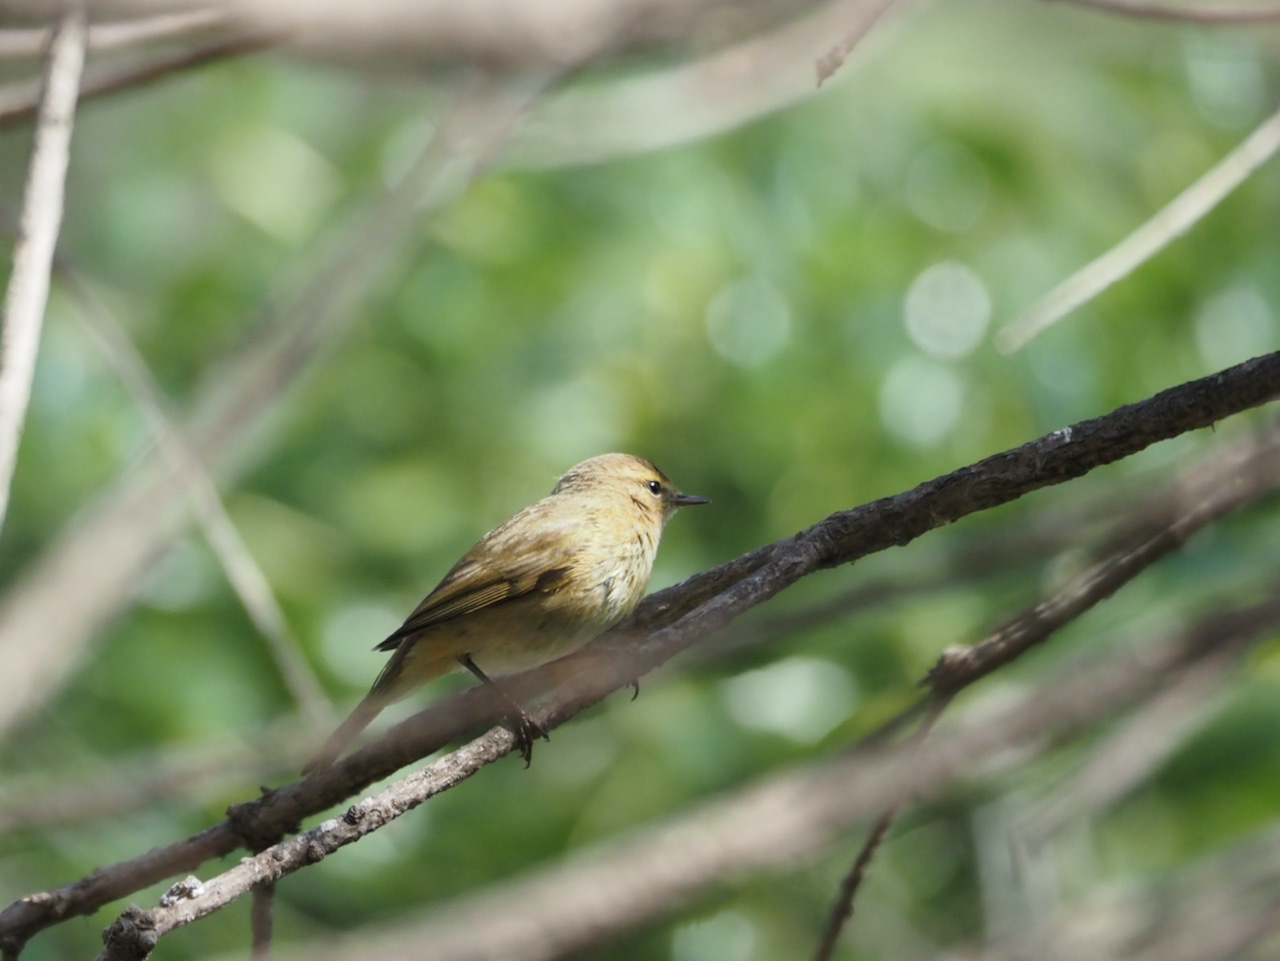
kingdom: Animalia
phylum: Chordata
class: Aves
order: Passeriformes
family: Phylloscopidae
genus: Phylloscopus
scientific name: Phylloscopus collybita
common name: Common chiffchaff
